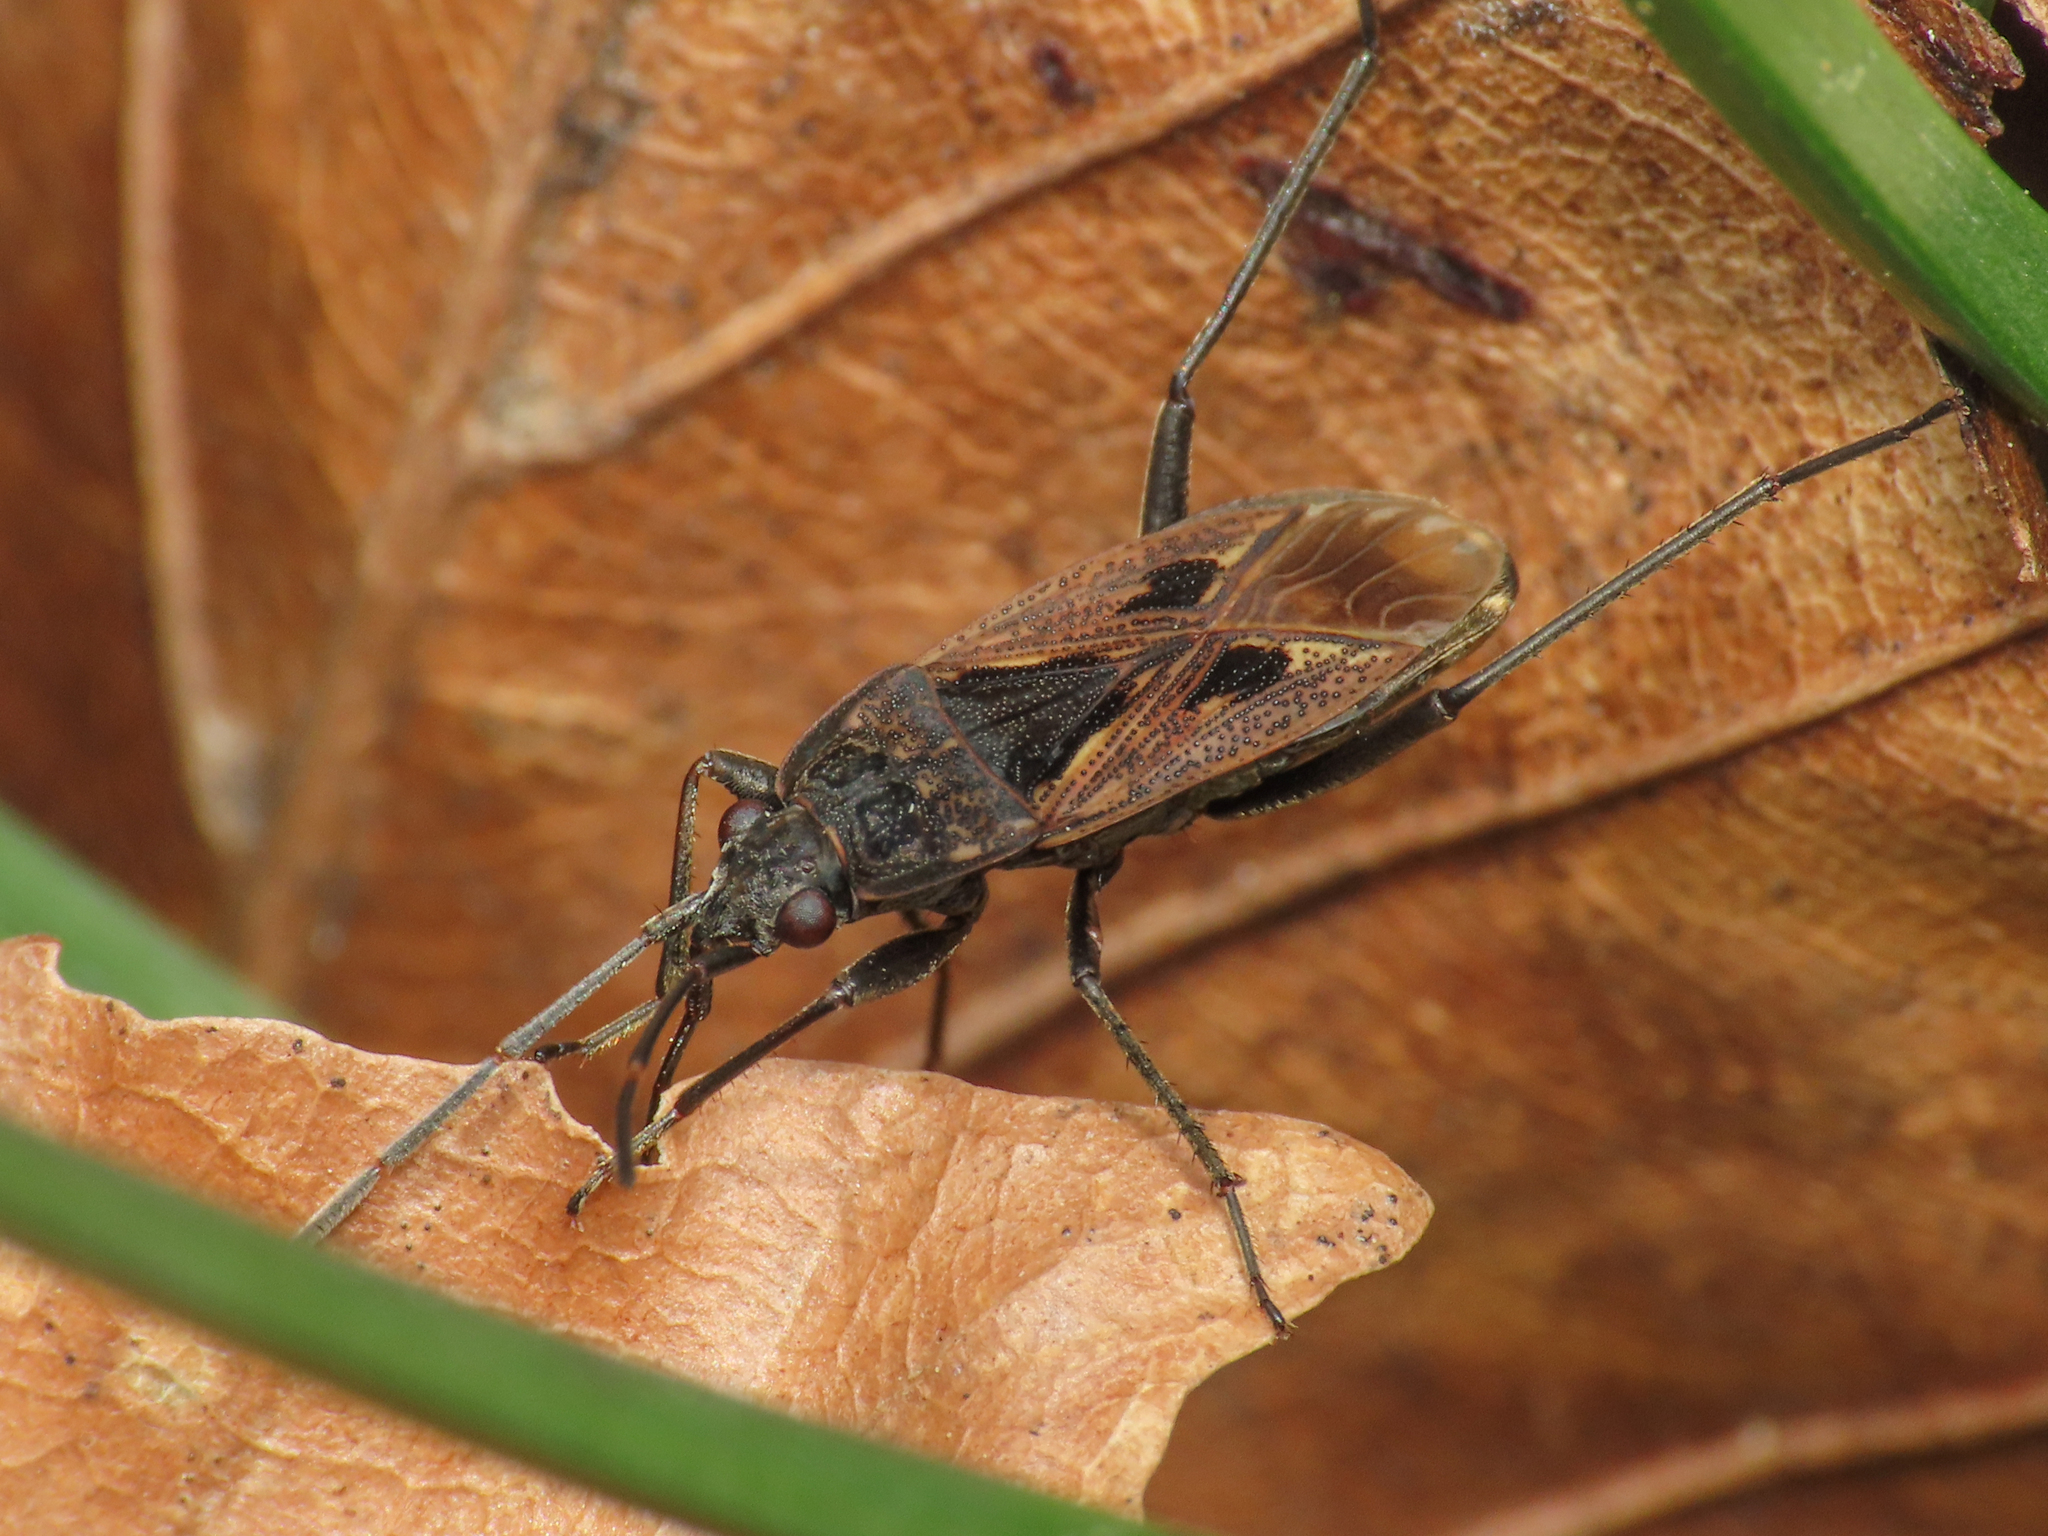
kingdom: Animalia
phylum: Arthropoda
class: Insecta
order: Hemiptera
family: Rhyparochromidae
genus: Rhyparochromus
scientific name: Rhyparochromus pini
